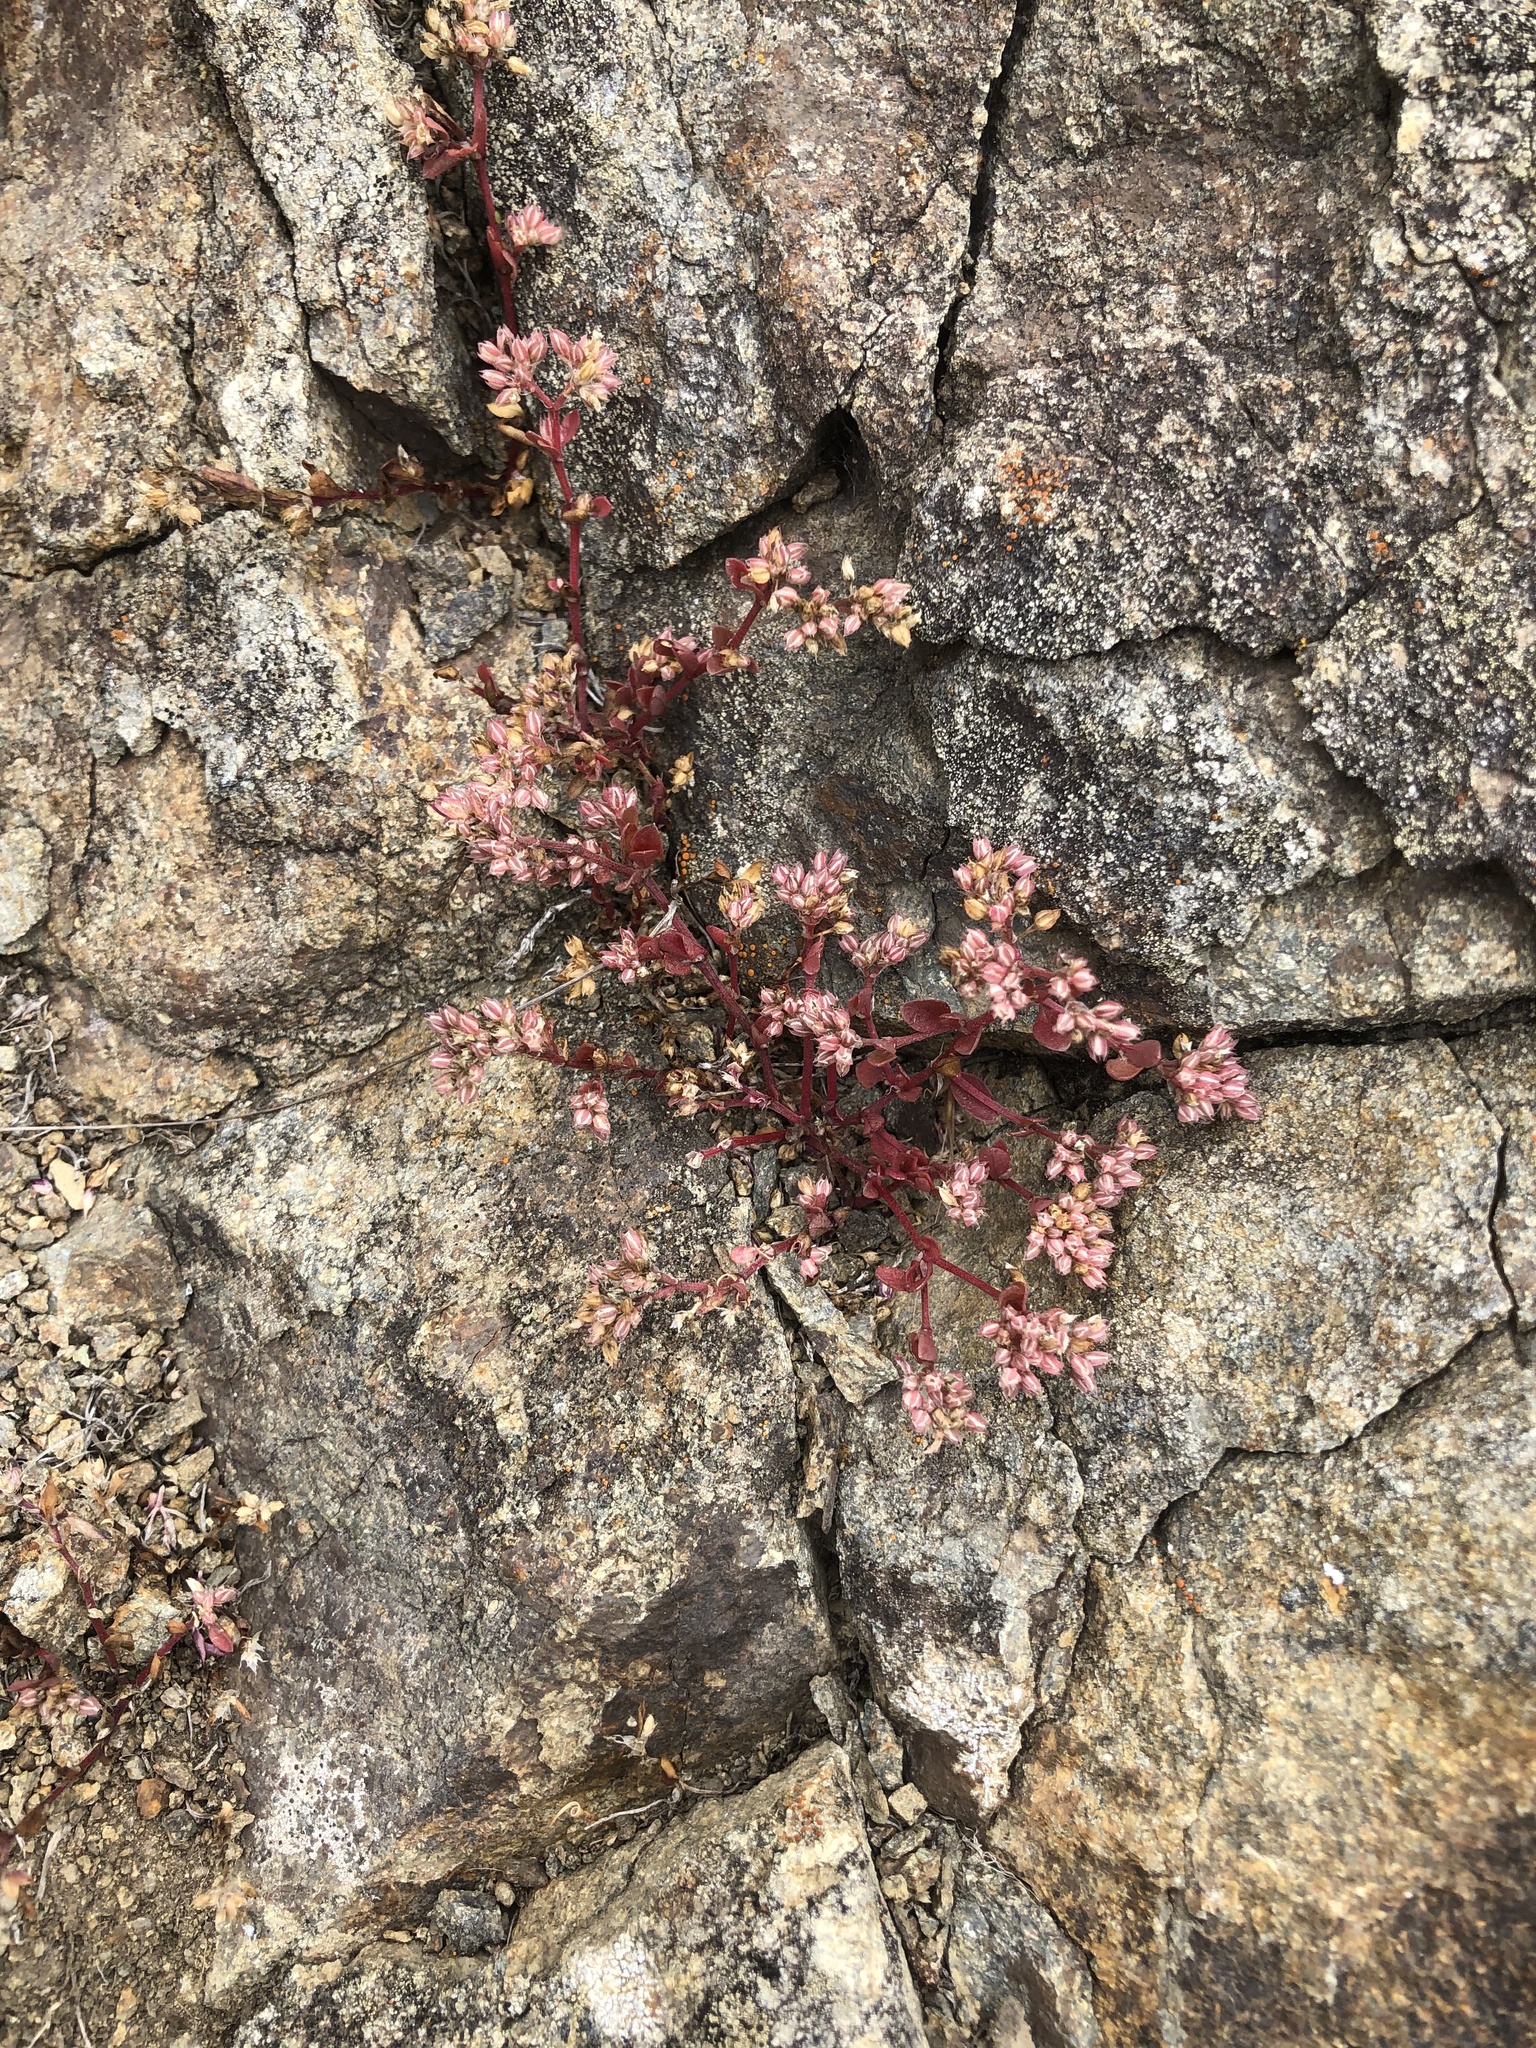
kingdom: Plantae
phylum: Tracheophyta
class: Magnoliopsida
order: Caryophyllales
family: Caryophyllaceae
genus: Polycarpon
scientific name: Polycarpon tetraphyllum
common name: Four-leaved all-seed
